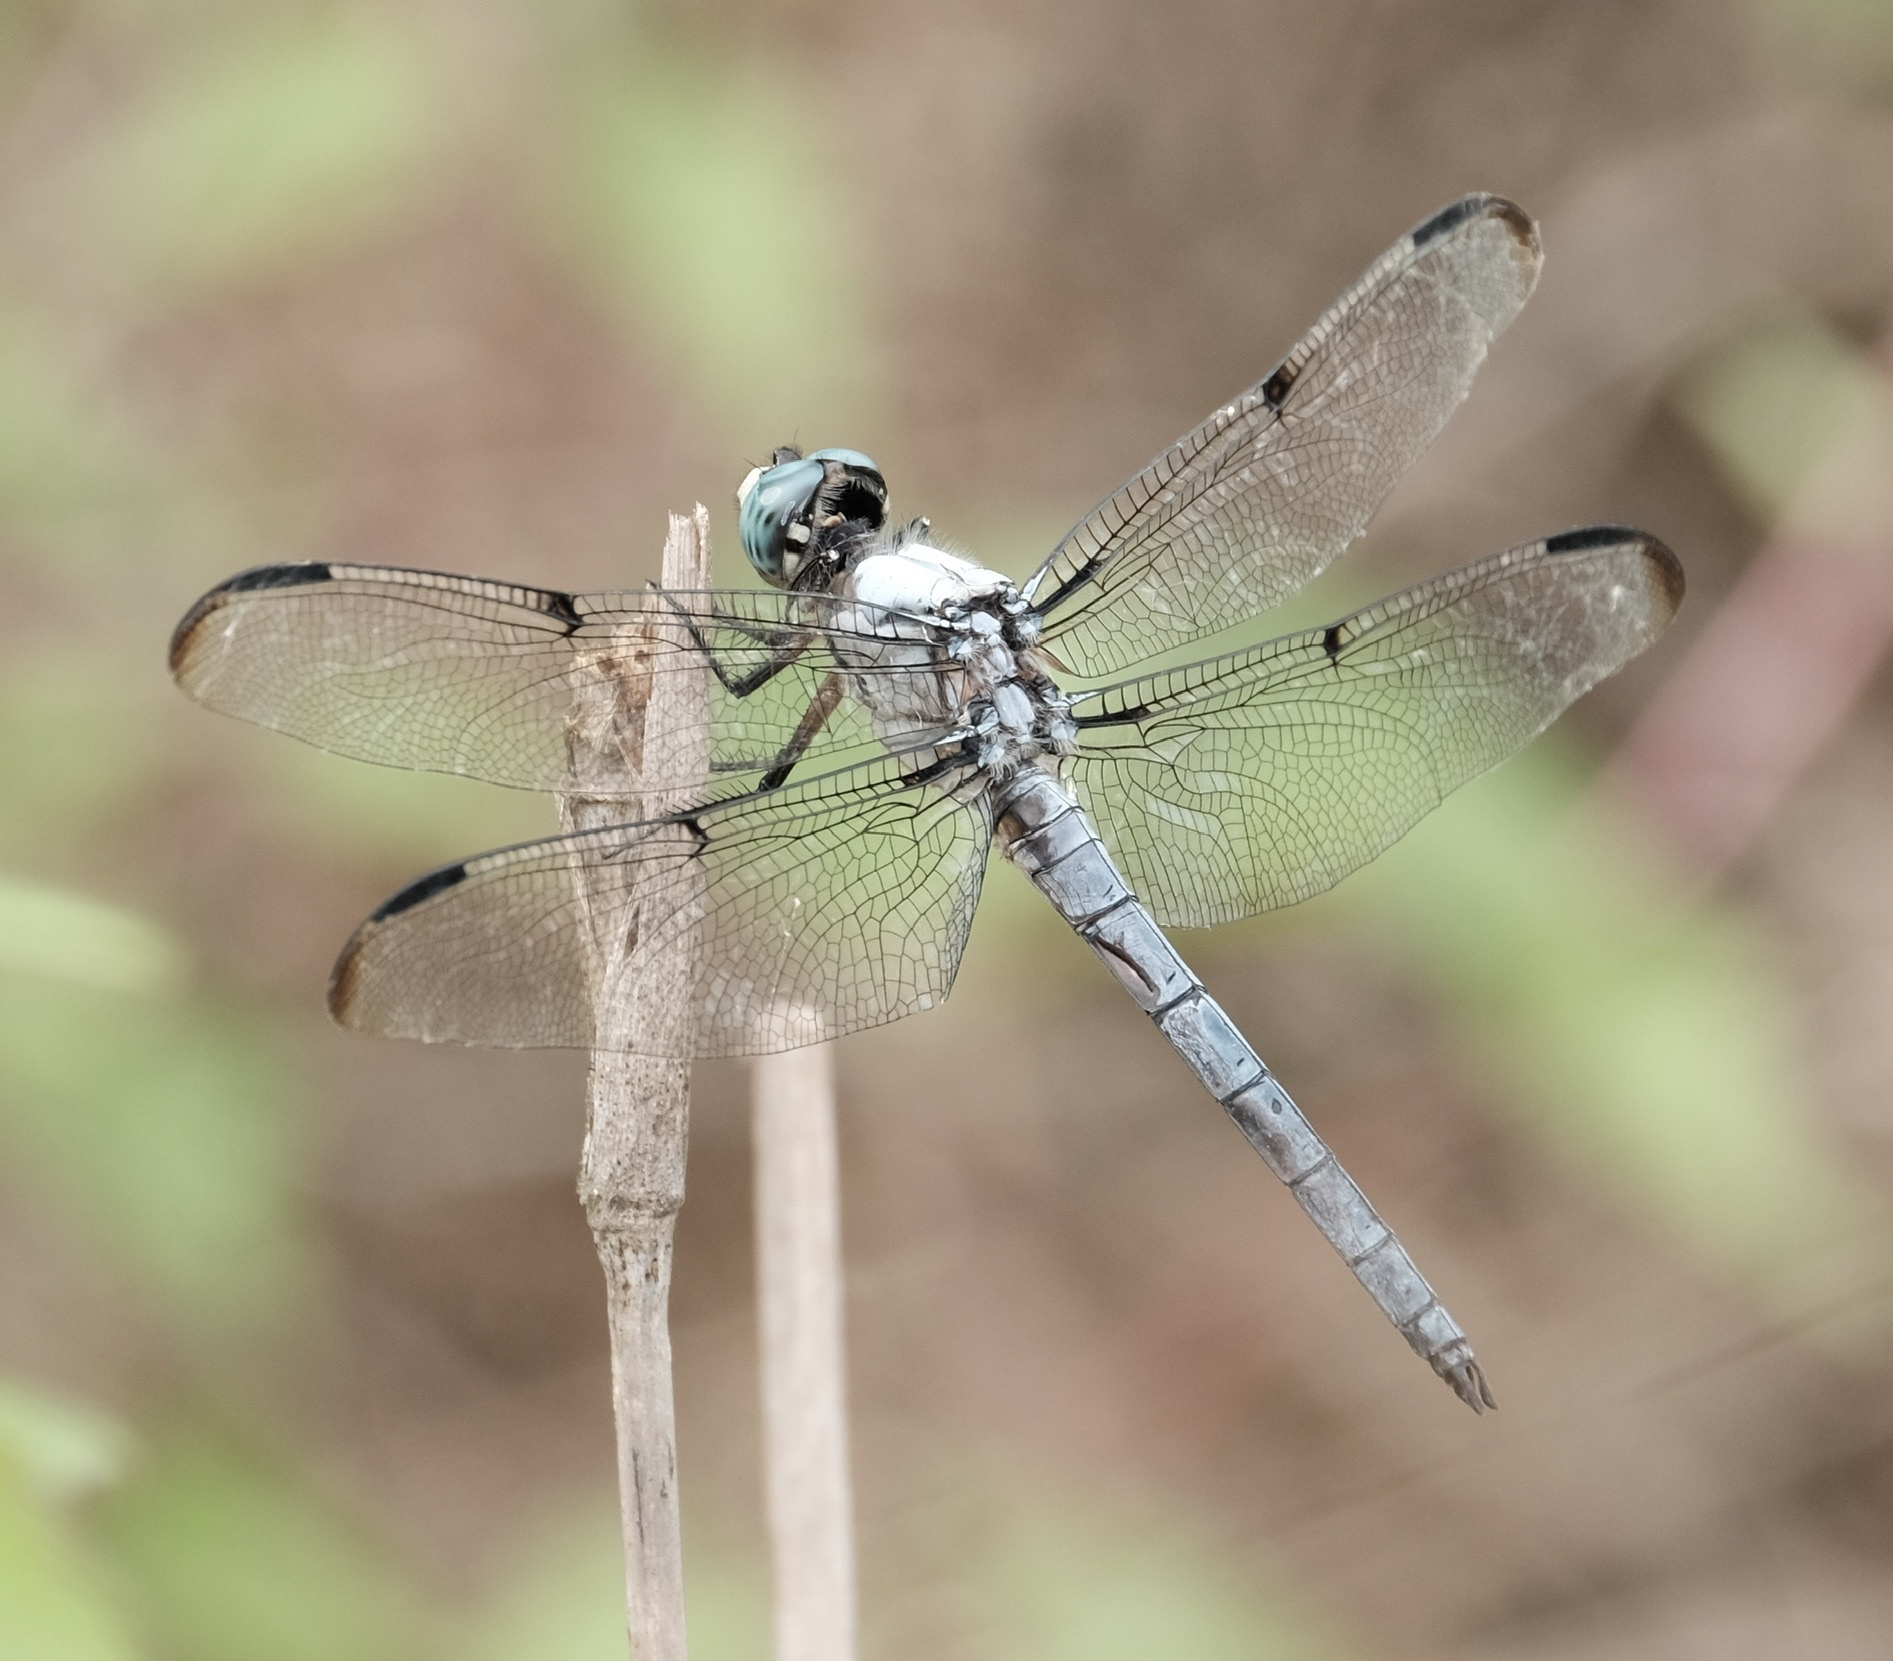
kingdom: Animalia
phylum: Arthropoda
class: Insecta
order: Odonata
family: Libellulidae
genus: Libellula
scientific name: Libellula vibrans
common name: Great blue skimmer
